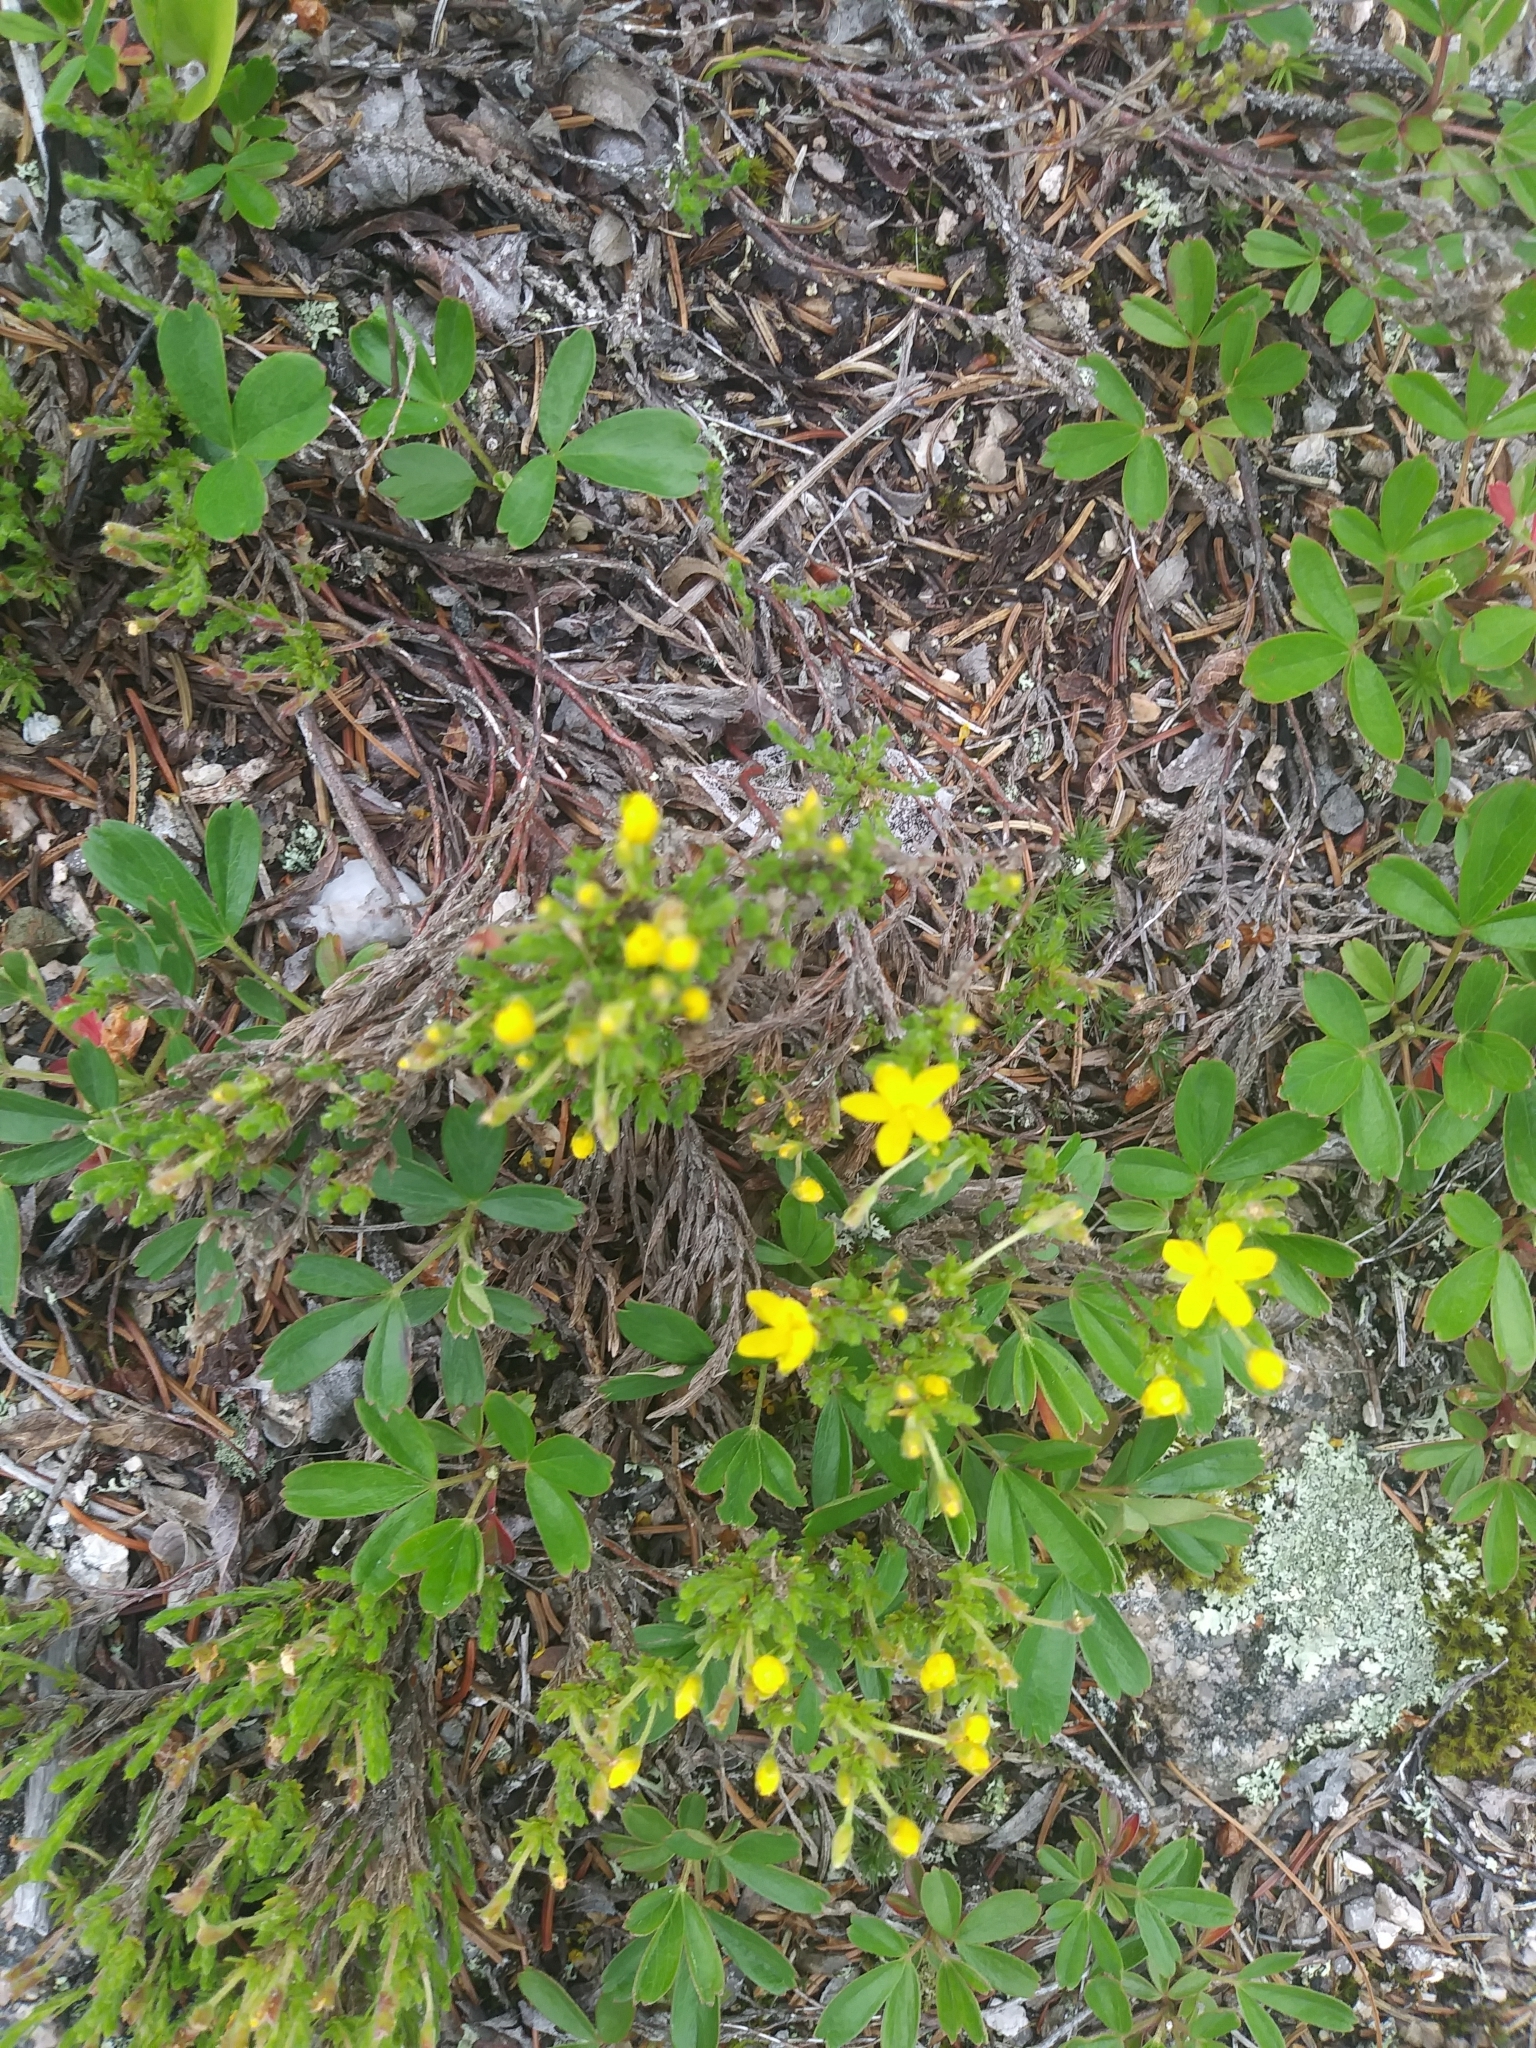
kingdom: Plantae
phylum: Tracheophyta
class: Magnoliopsida
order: Malvales
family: Cistaceae
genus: Hudsonia
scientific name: Hudsonia ericoides
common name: Golden-heather
